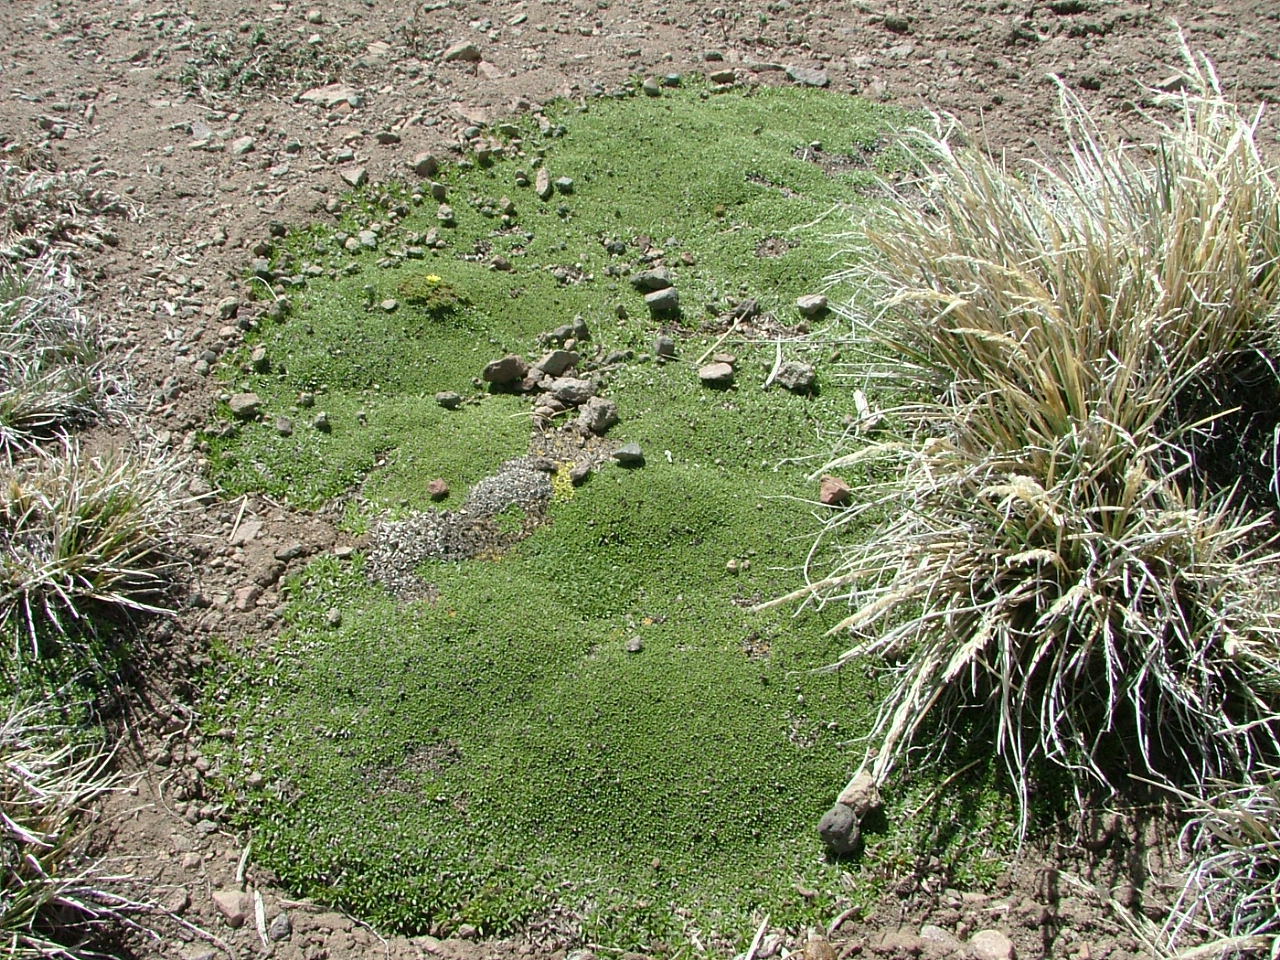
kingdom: Plantae
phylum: Tracheophyta
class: Magnoliopsida
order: Oxalidales
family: Oxalidaceae
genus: Oxalis
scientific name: Oxalis erythrorhiza
